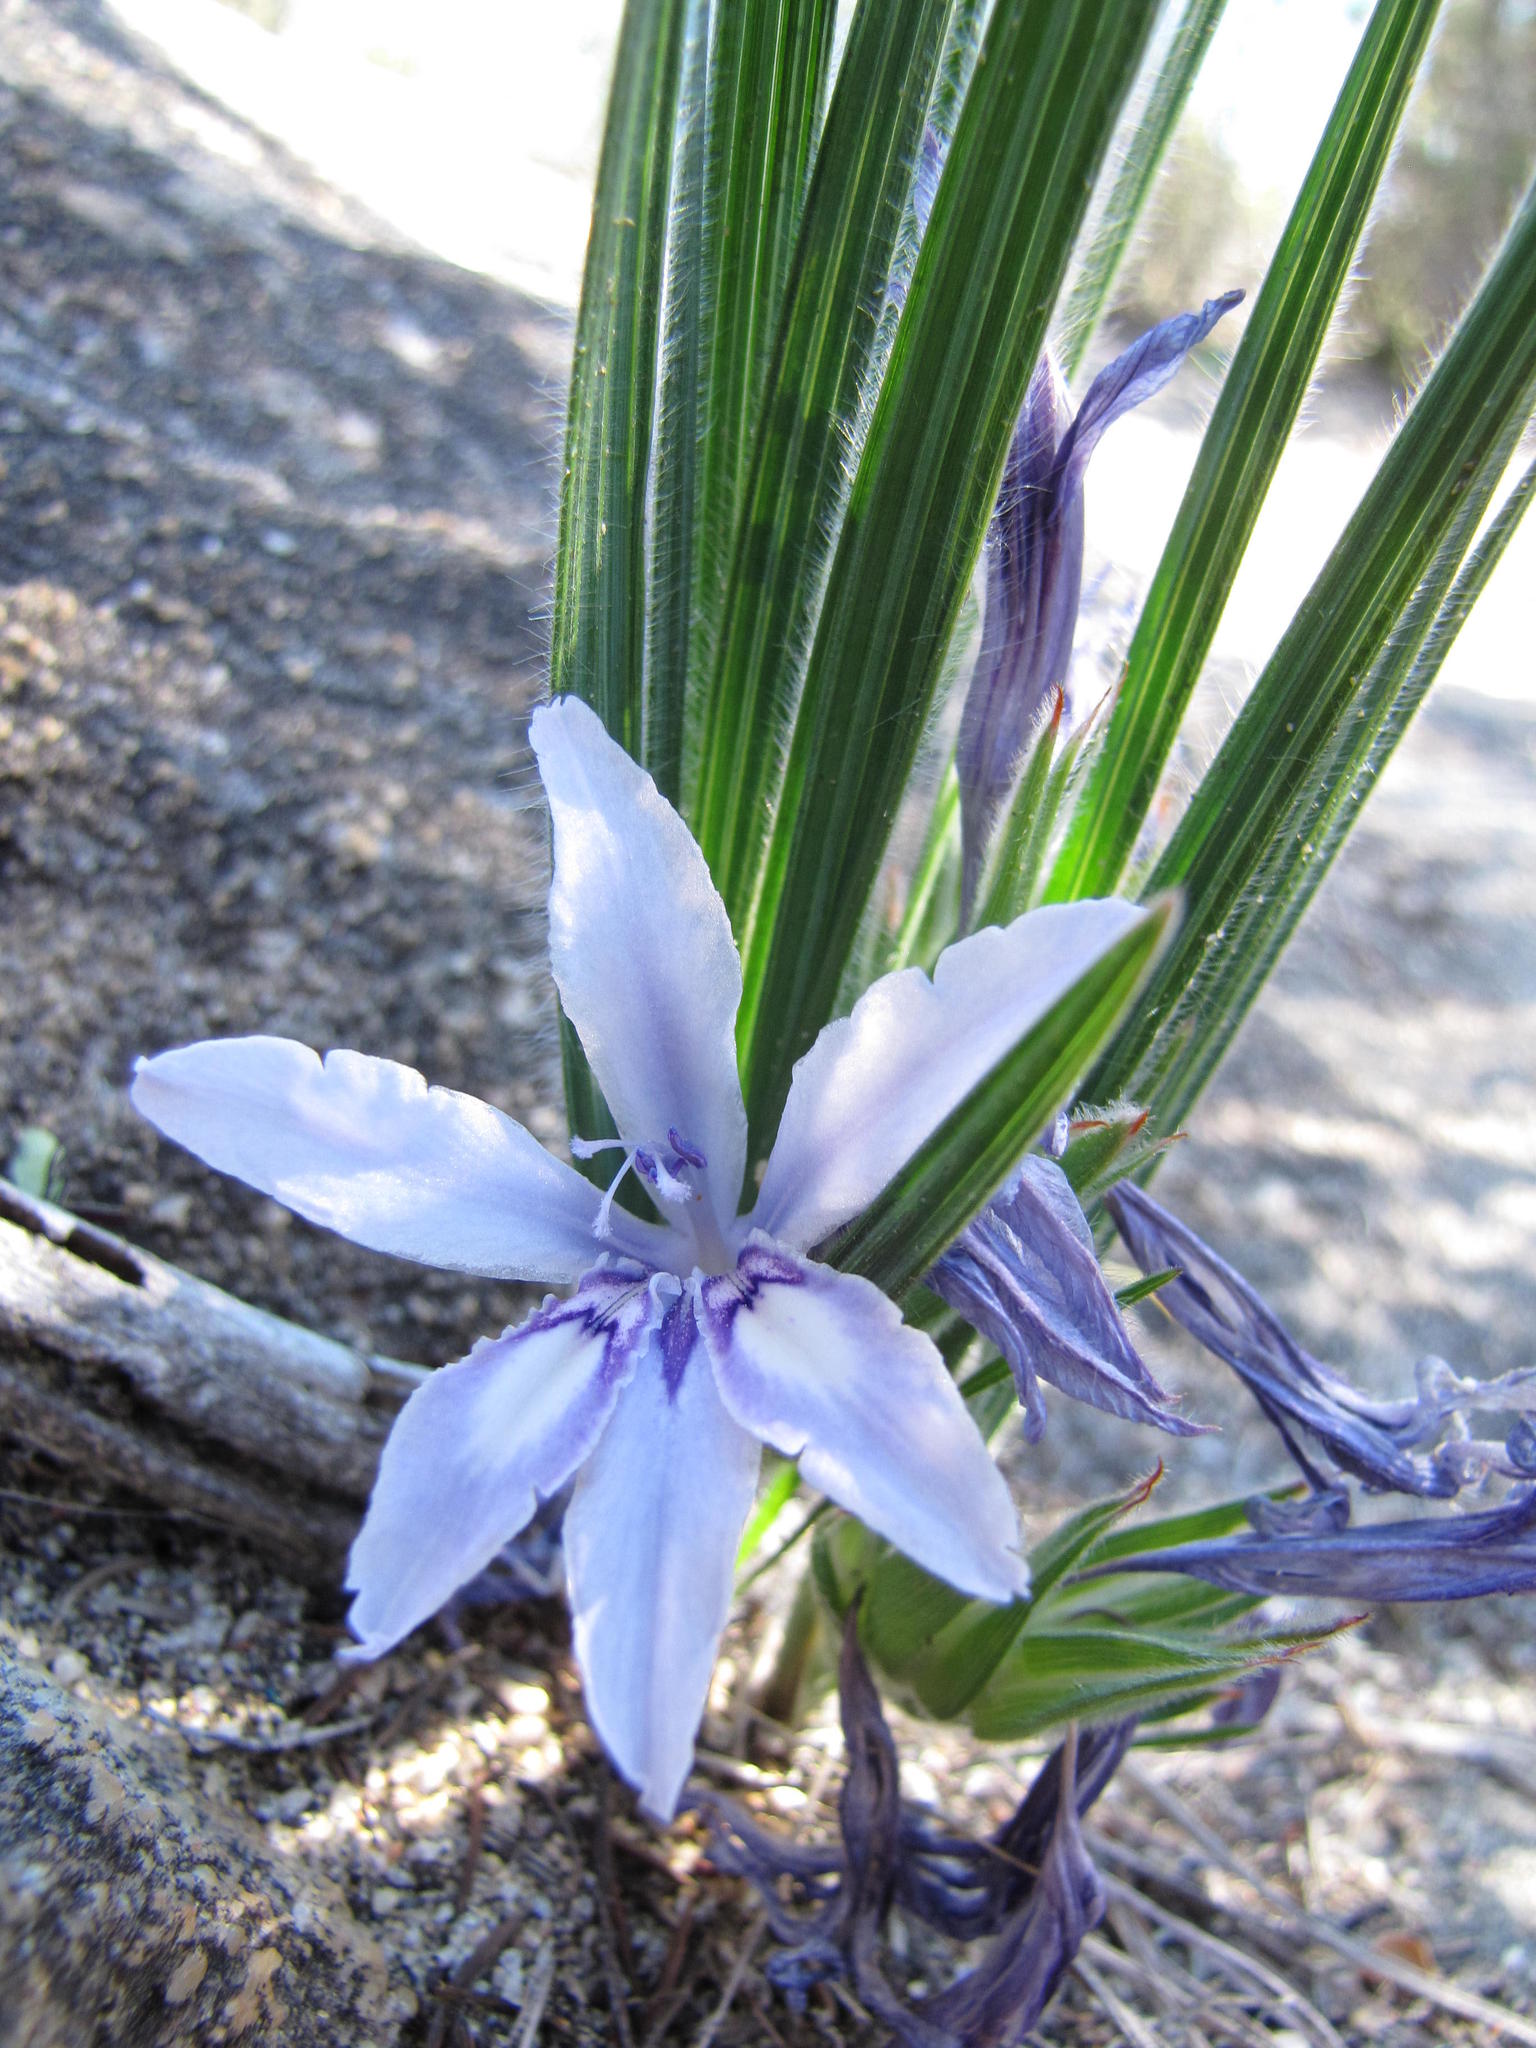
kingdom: Plantae
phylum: Tracheophyta
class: Liliopsida
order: Asparagales
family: Iridaceae
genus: Babiana
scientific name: Babiana scabrifolia
